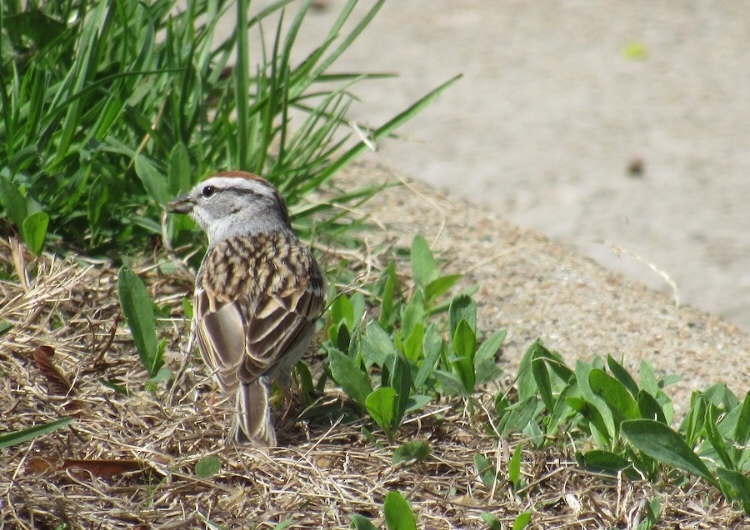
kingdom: Animalia
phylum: Chordata
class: Aves
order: Passeriformes
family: Passerellidae
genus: Spizella
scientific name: Spizella passerina
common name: Chipping sparrow
